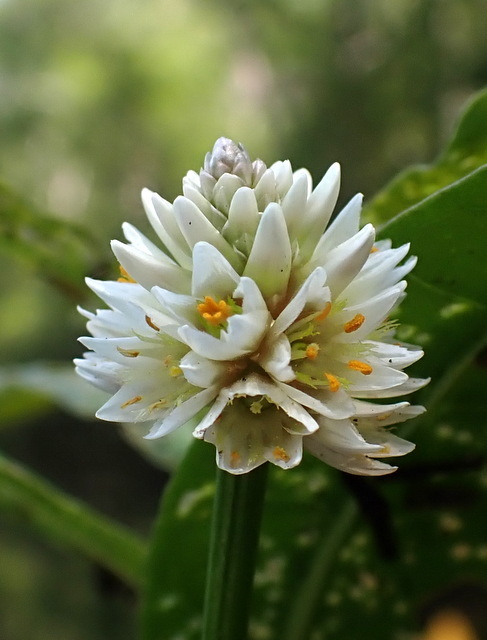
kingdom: Plantae
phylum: Tracheophyta
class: Magnoliopsida
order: Caryophyllales
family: Amaranthaceae
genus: Alternanthera
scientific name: Alternanthera philoxeroides
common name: Alligatorweed
